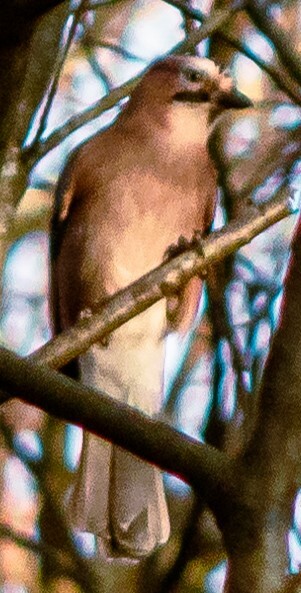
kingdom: Animalia
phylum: Chordata
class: Aves
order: Passeriformes
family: Corvidae
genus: Garrulus
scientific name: Garrulus glandarius
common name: Eurasian jay
